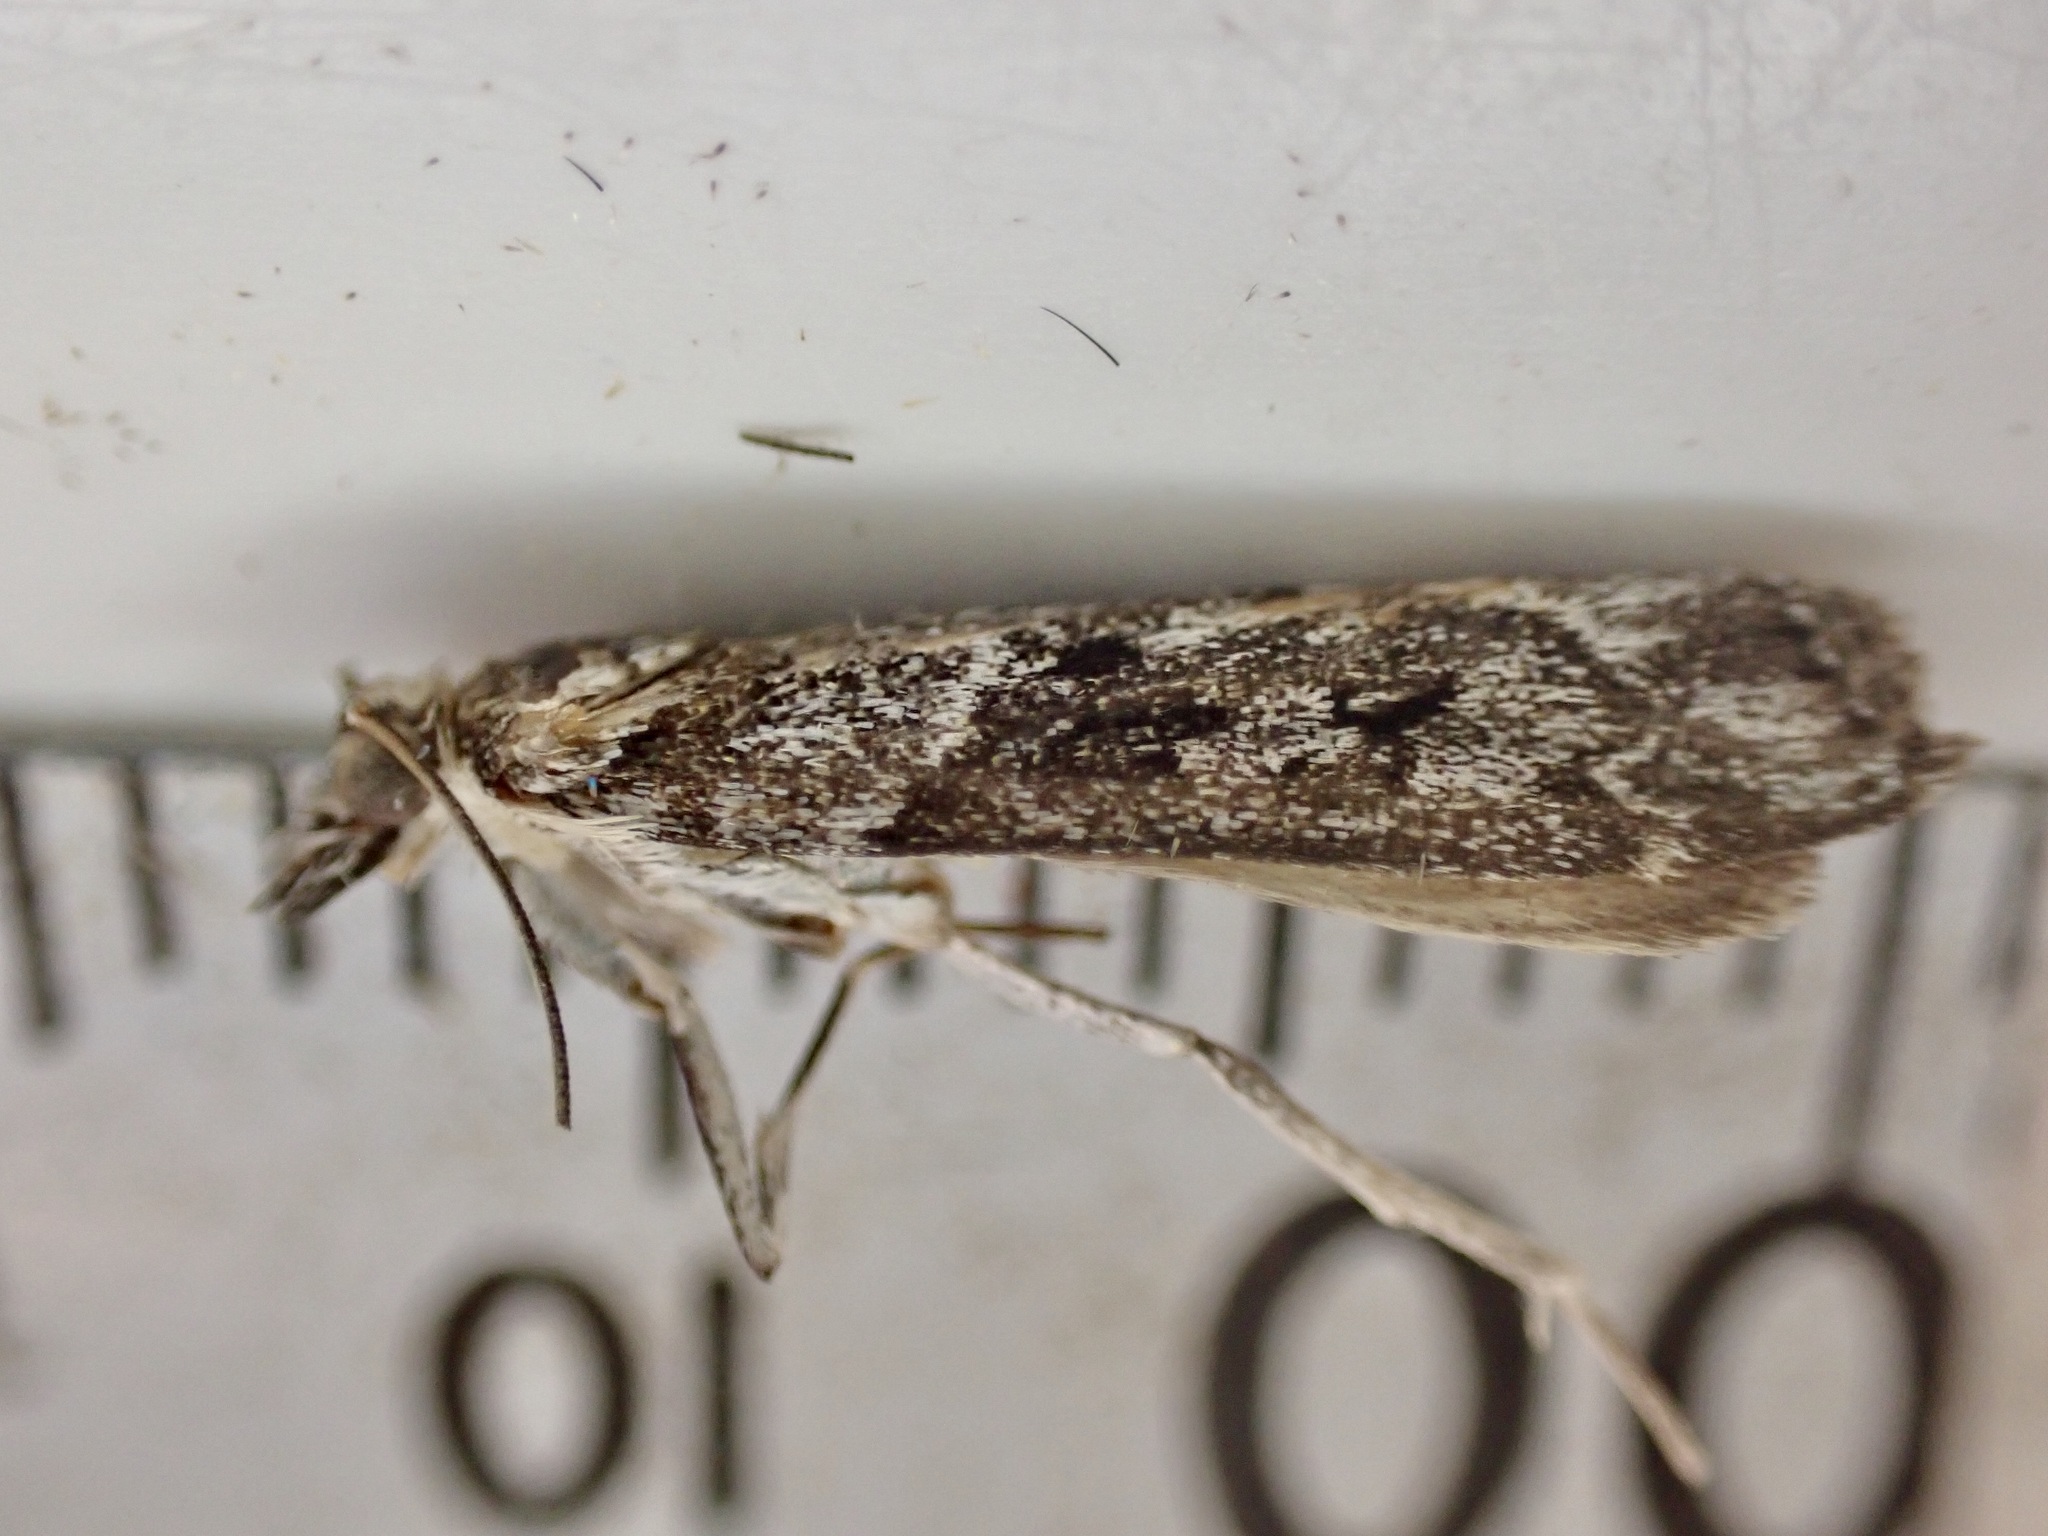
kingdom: Animalia
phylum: Arthropoda
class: Insecta
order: Lepidoptera
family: Crambidae
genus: Eudonia
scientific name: Eudonia submarginalis
